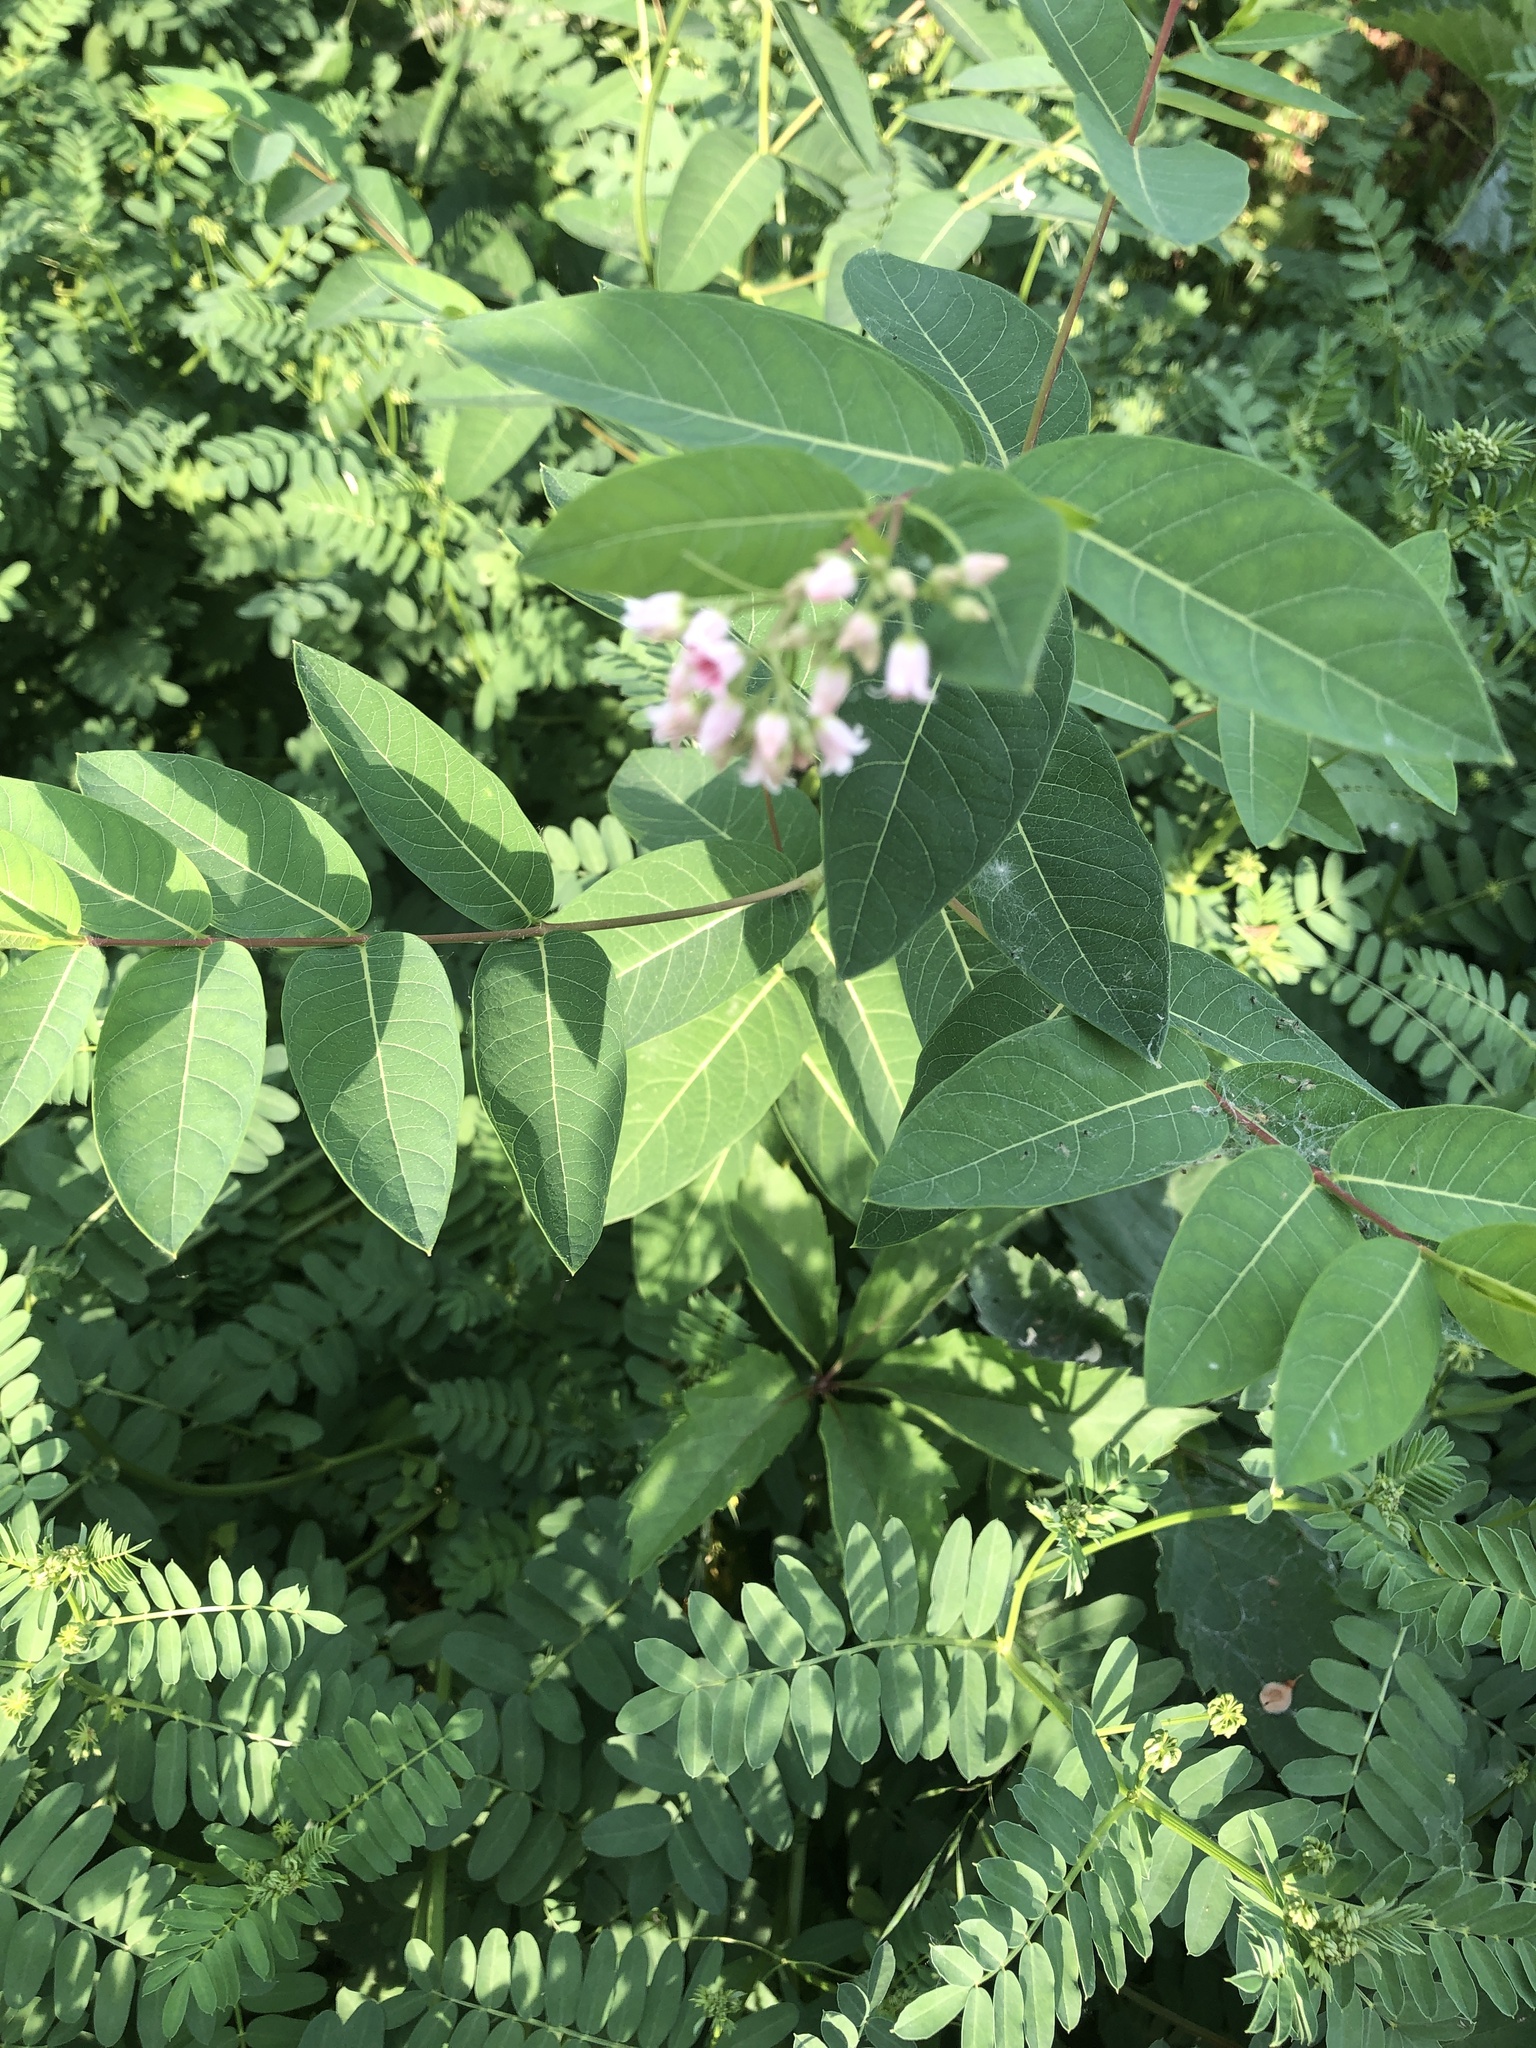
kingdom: Plantae
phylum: Tracheophyta
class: Magnoliopsida
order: Gentianales
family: Apocynaceae
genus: Apocynum
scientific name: Apocynum androsaemifolium
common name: Spreading dogbane
